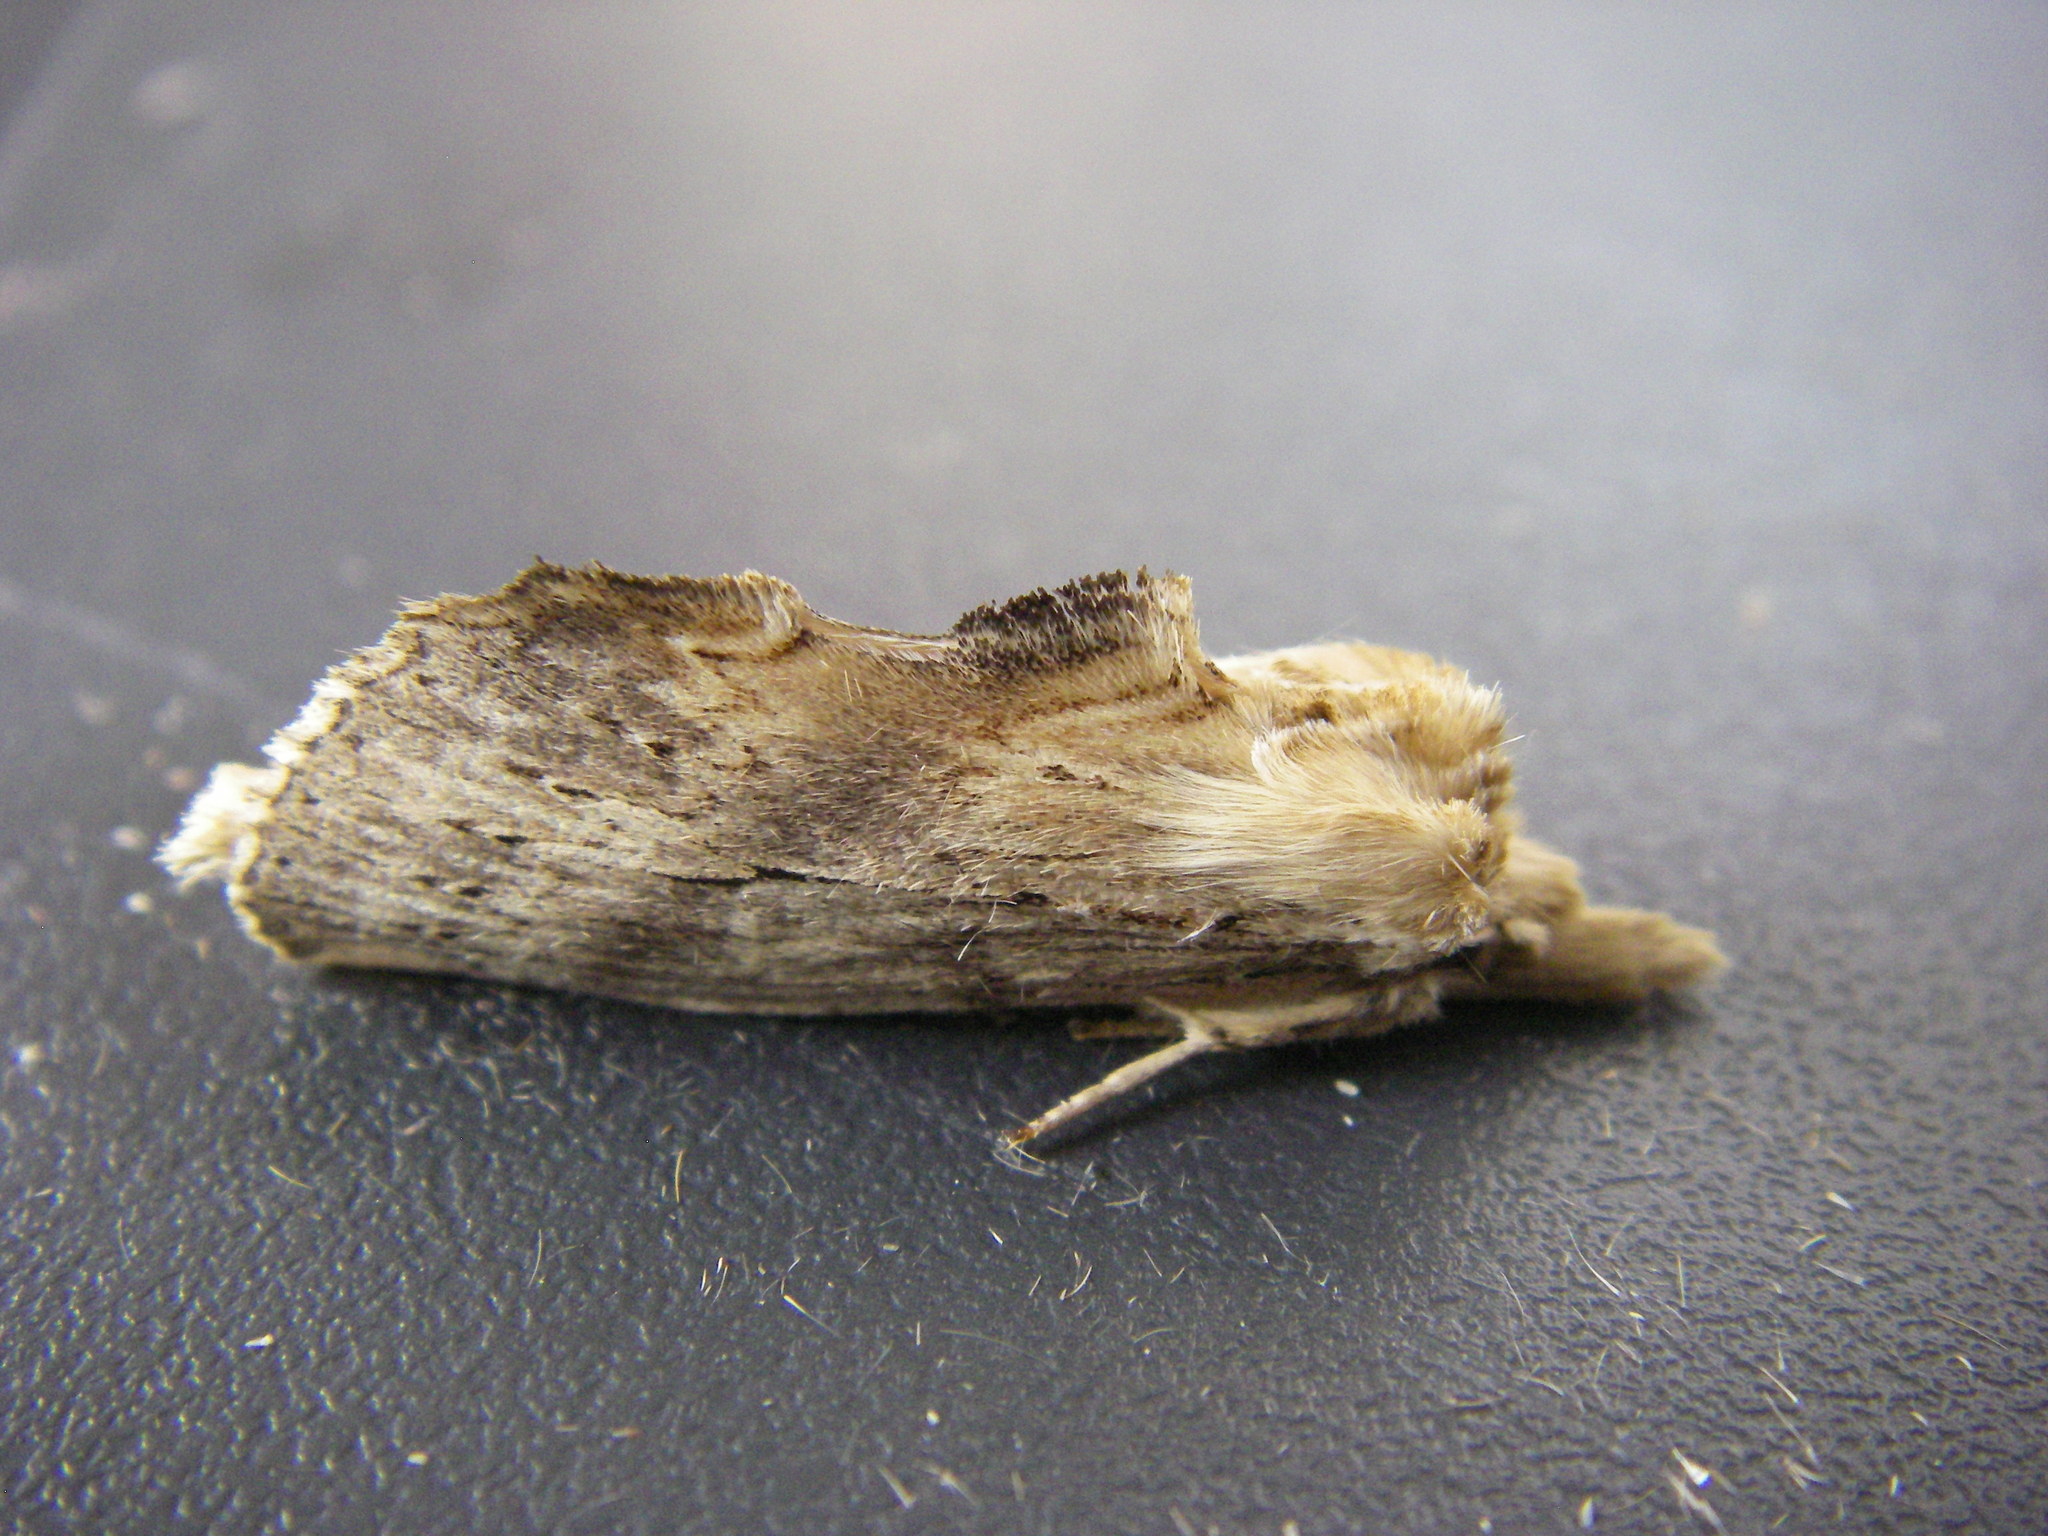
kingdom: Animalia
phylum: Arthropoda
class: Insecta
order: Lepidoptera
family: Notodontidae
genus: Pterostoma
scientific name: Pterostoma palpina
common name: Pale prominent
